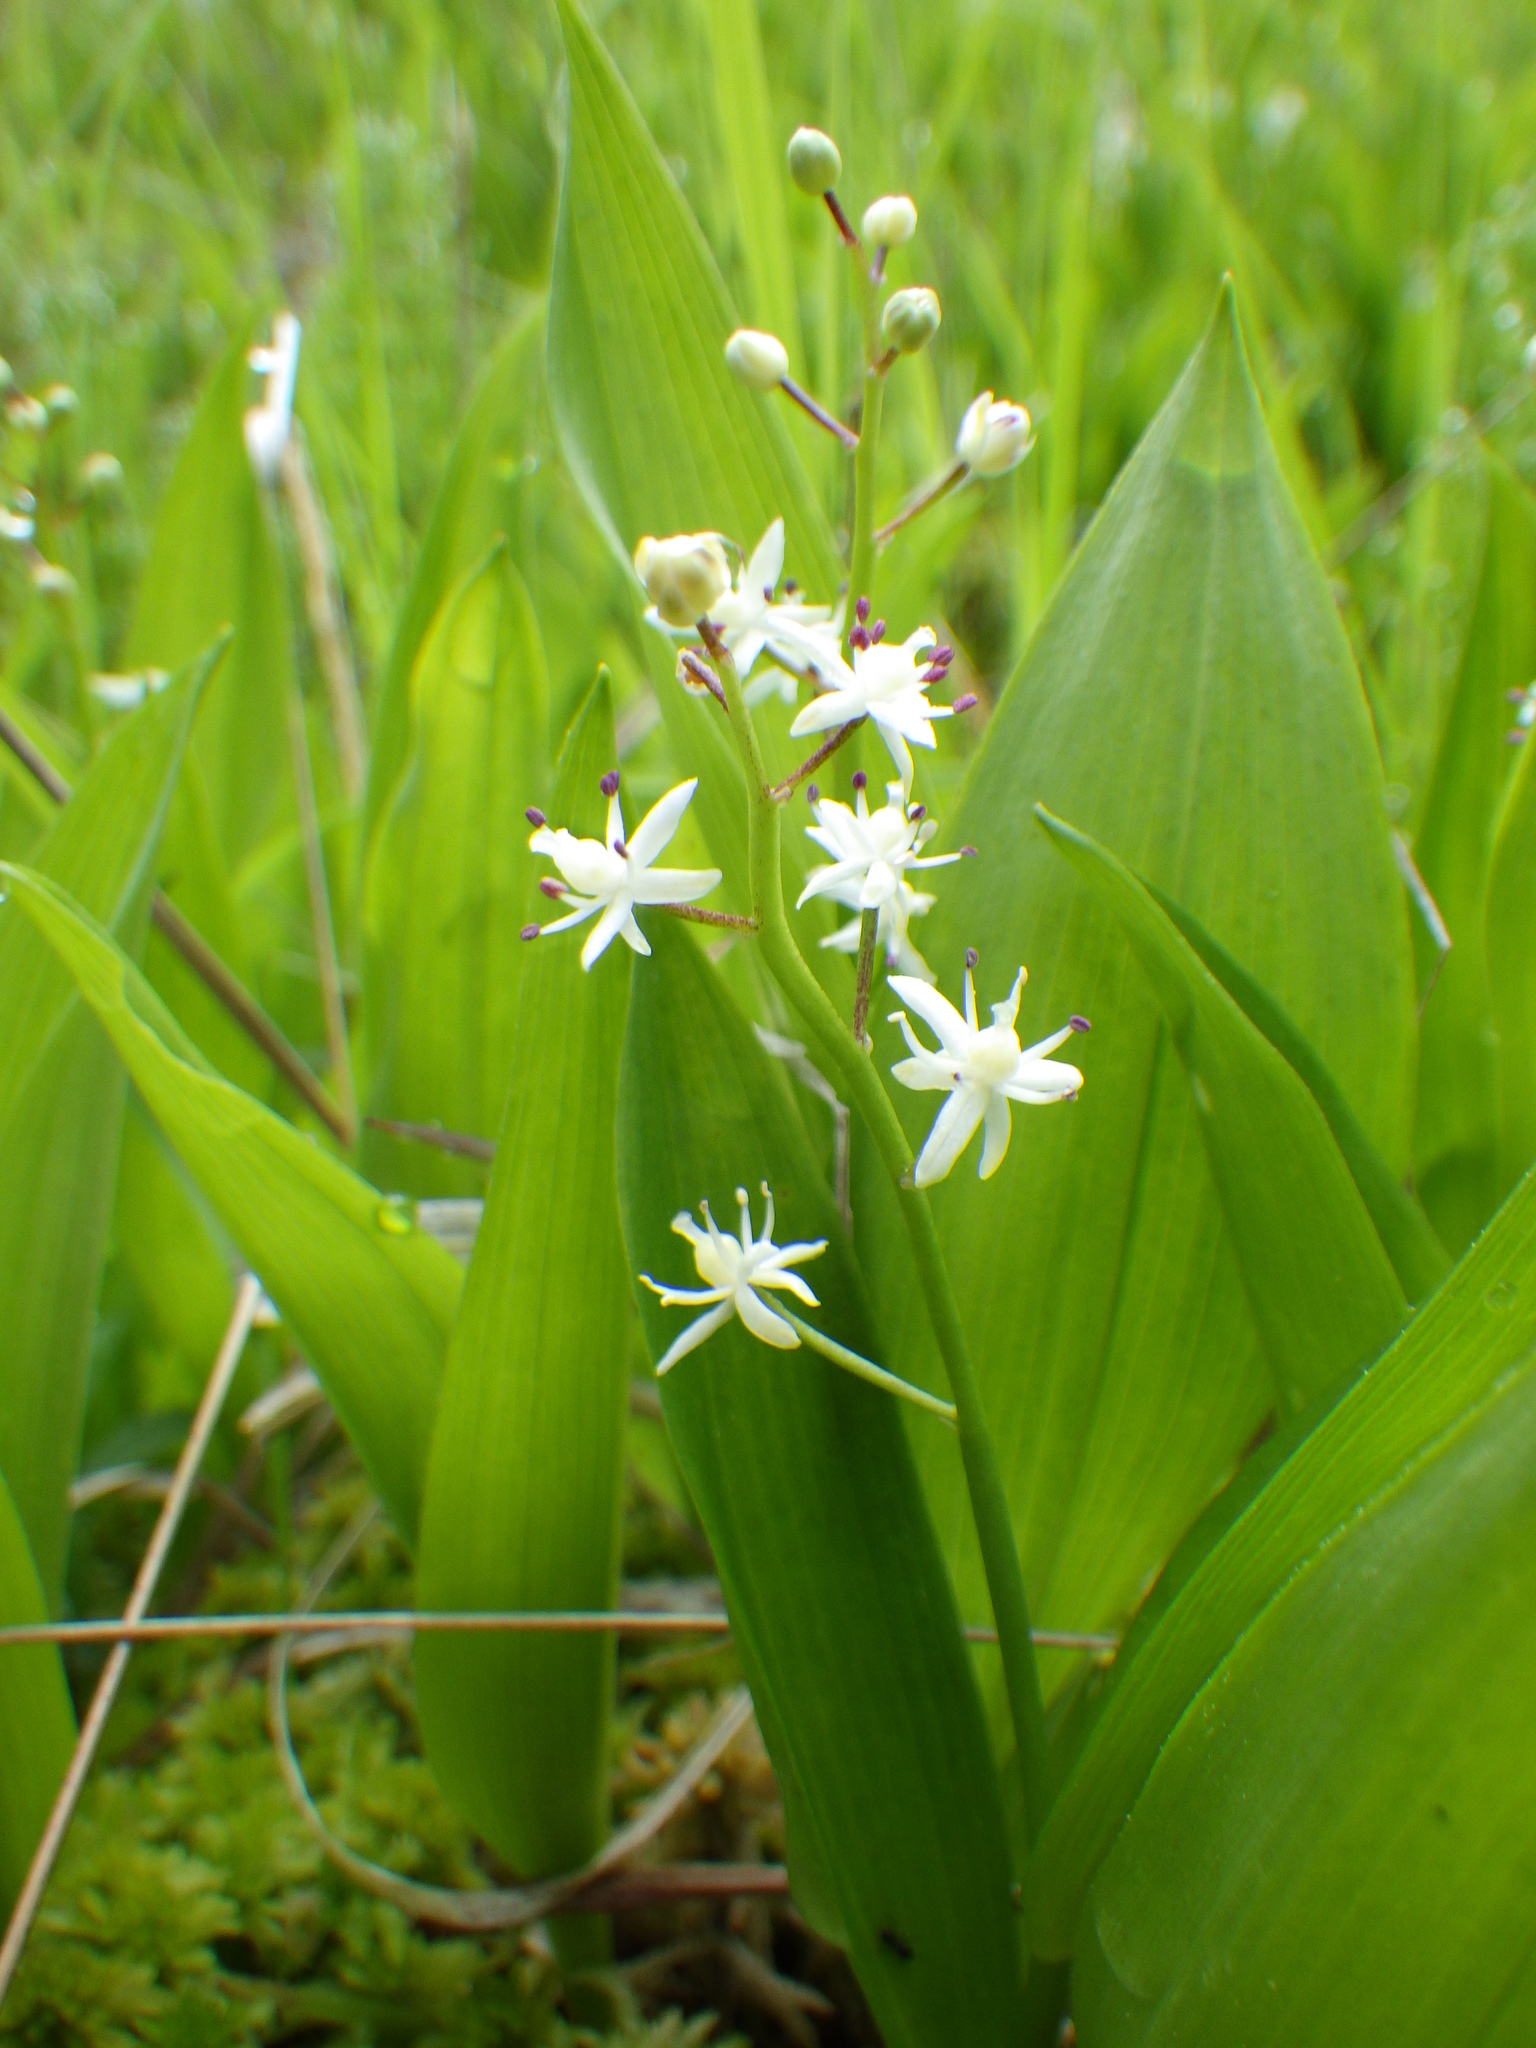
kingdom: Plantae
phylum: Tracheophyta
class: Liliopsida
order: Asparagales
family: Asparagaceae
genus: Maianthemum
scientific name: Maianthemum trifolium
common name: Swamp false solomon's seal
